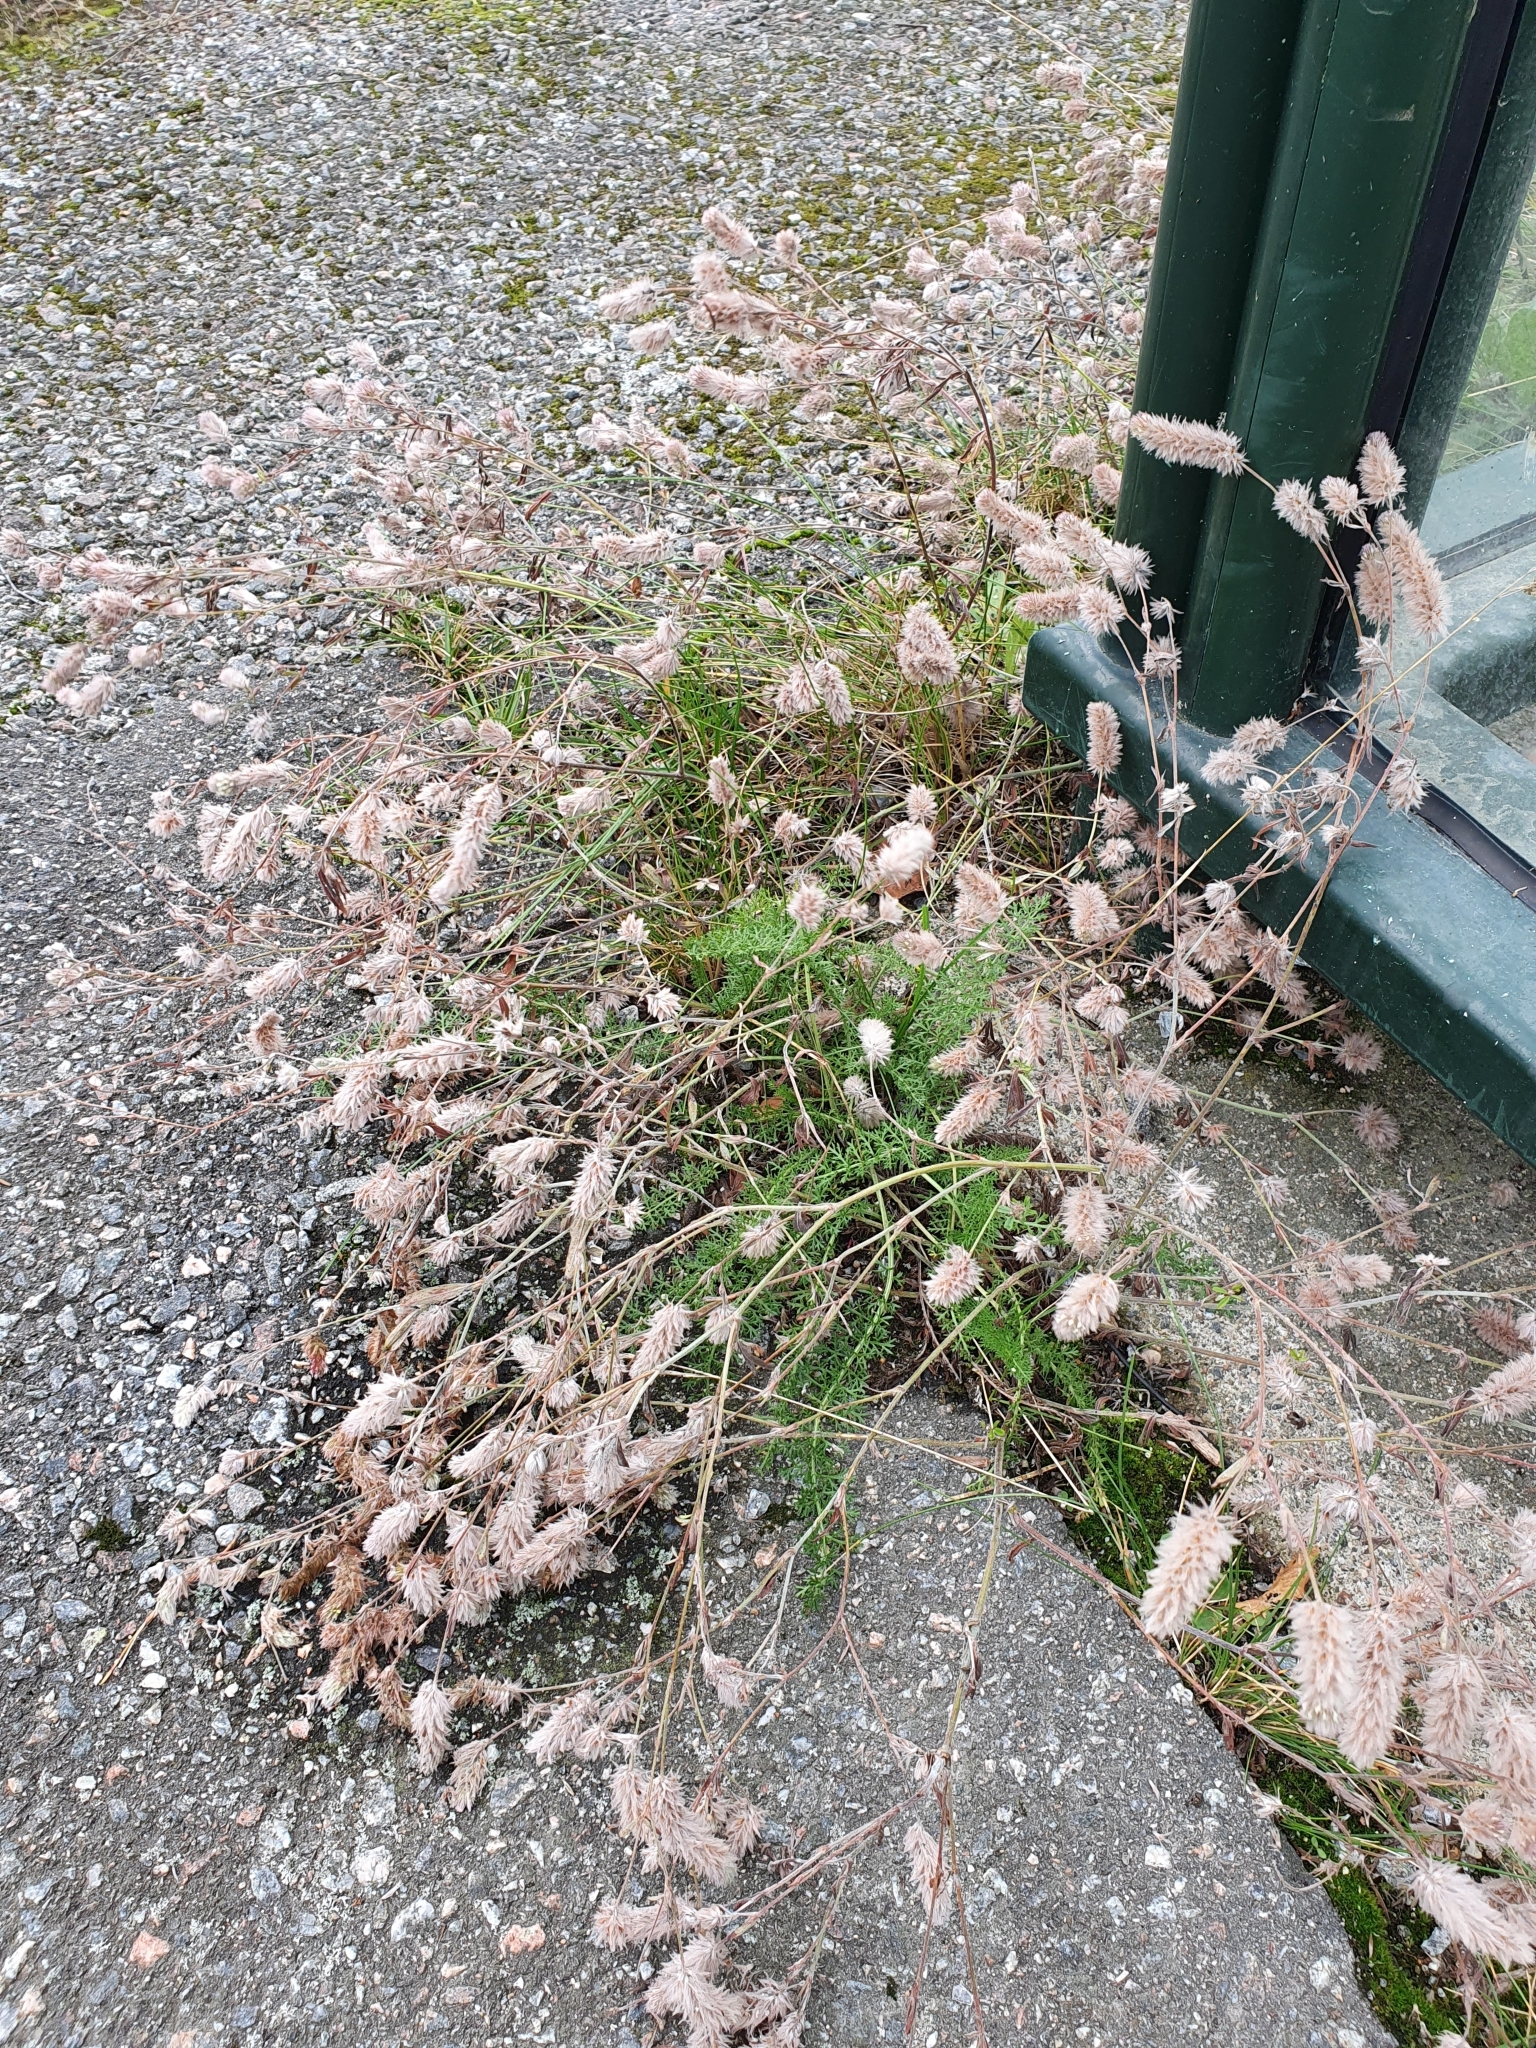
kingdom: Plantae
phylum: Tracheophyta
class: Magnoliopsida
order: Fabales
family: Fabaceae
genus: Trifolium
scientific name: Trifolium arvense
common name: Hare's-foot clover
